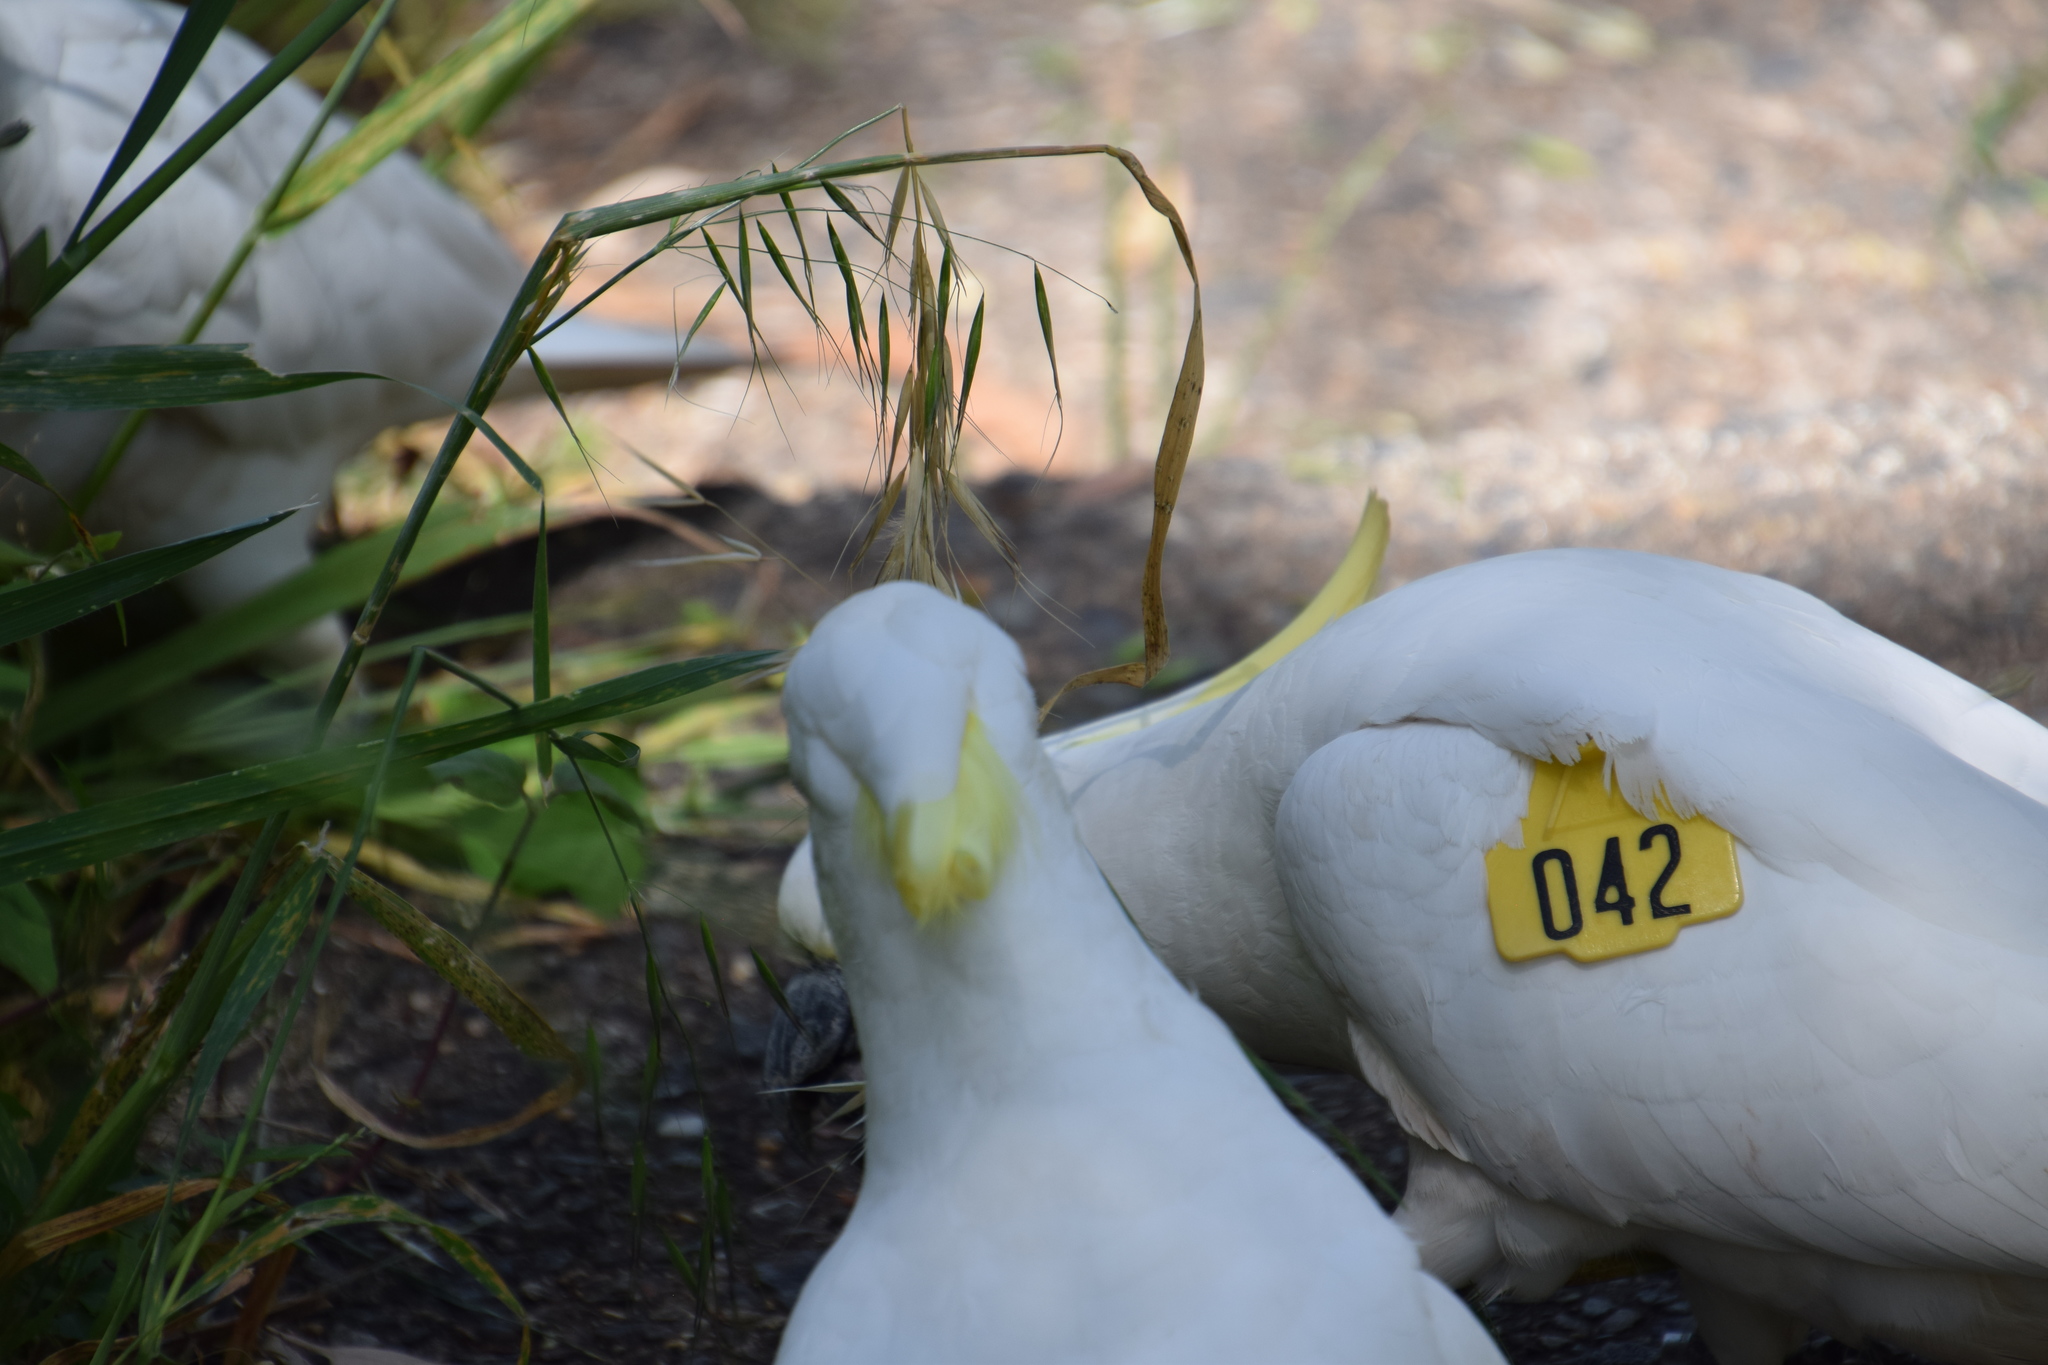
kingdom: Animalia
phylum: Chordata
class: Aves
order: Psittaciformes
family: Psittacidae
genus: Cacatua
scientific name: Cacatua galerita
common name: Sulphur-crested cockatoo
